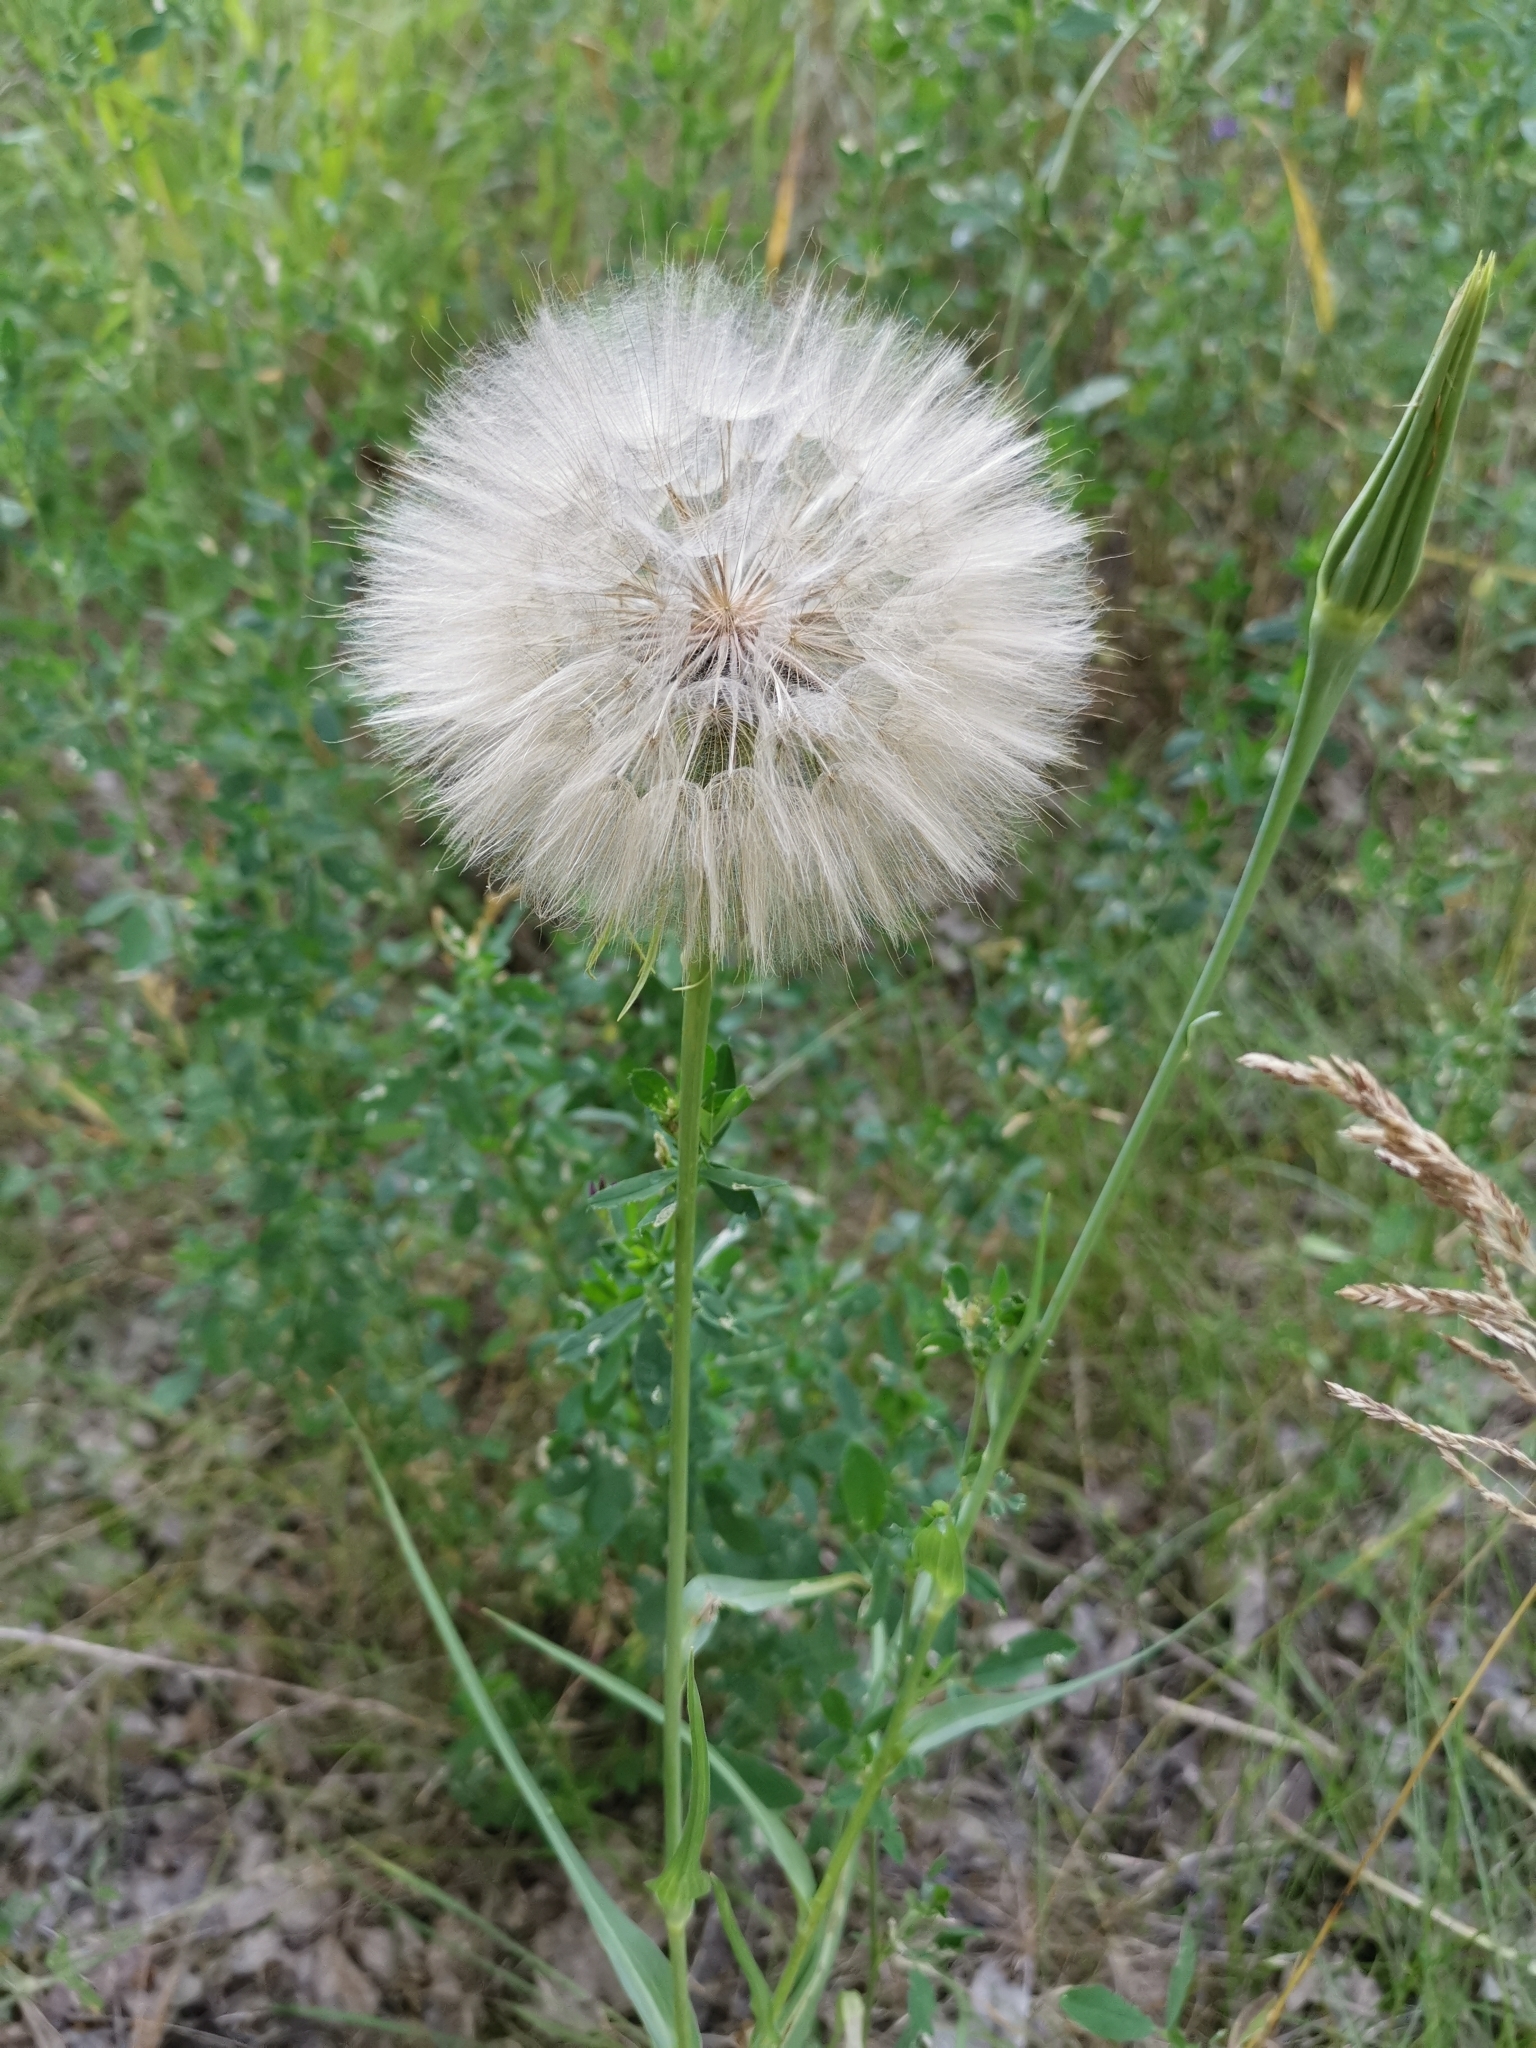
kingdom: Plantae
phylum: Tracheophyta
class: Magnoliopsida
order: Asterales
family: Asteraceae
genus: Tragopogon
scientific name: Tragopogon dubius
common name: Yellow salsify
